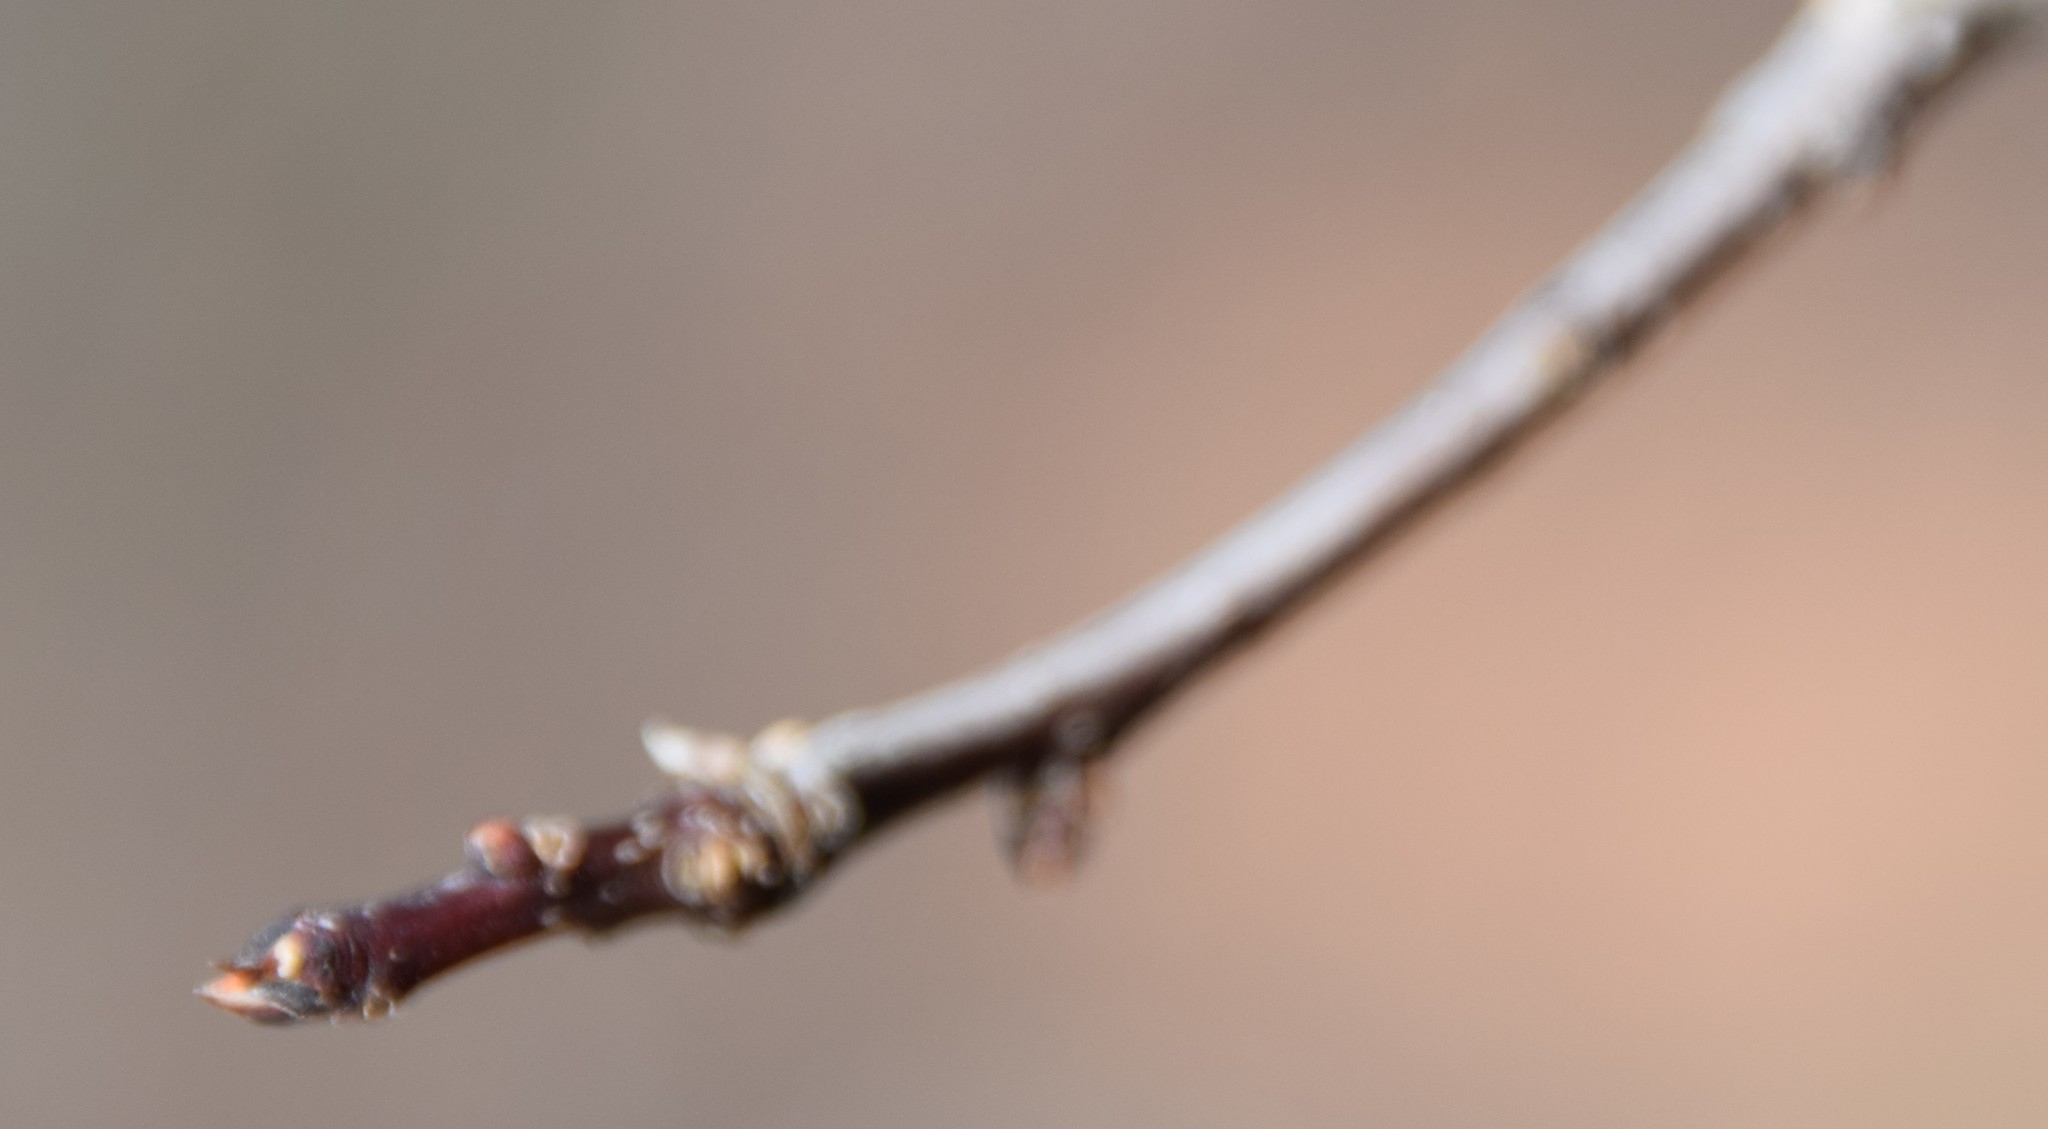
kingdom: Plantae
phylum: Tracheophyta
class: Magnoliopsida
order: Aquifoliales
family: Aquifoliaceae
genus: Ilex
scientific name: Ilex mucronata
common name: Catberry
